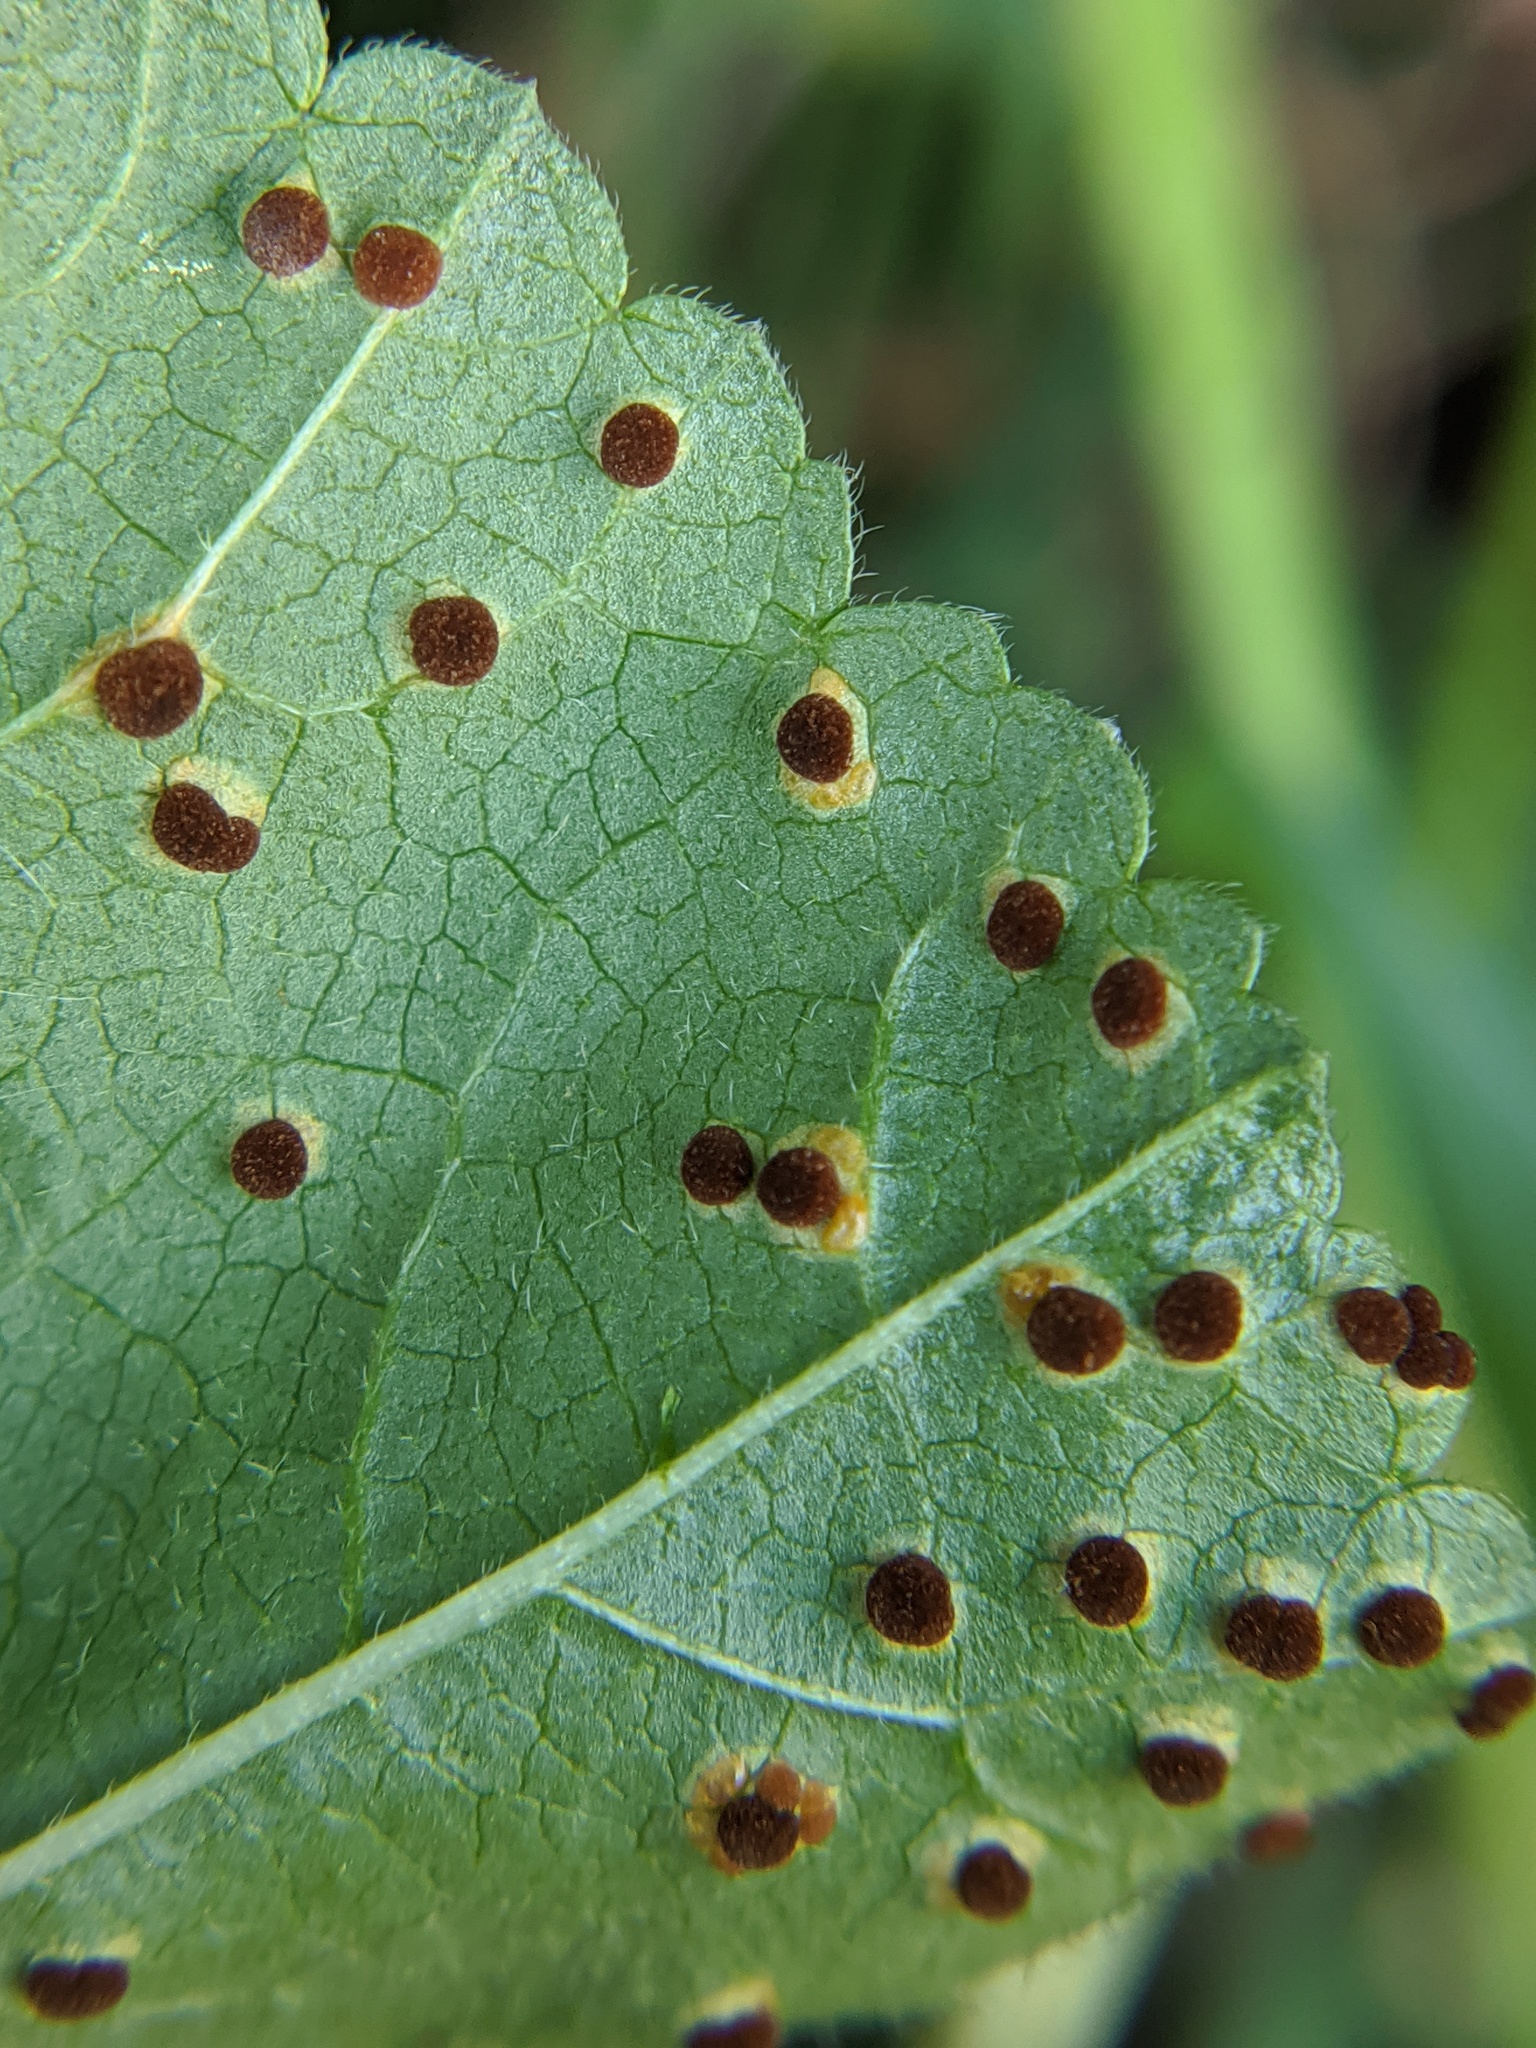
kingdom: Fungi
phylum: Basidiomycota
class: Pucciniomycetes
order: Pucciniales
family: Pucciniaceae
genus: Puccinia
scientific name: Puccinia malvacearum
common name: Hollyhock rust
